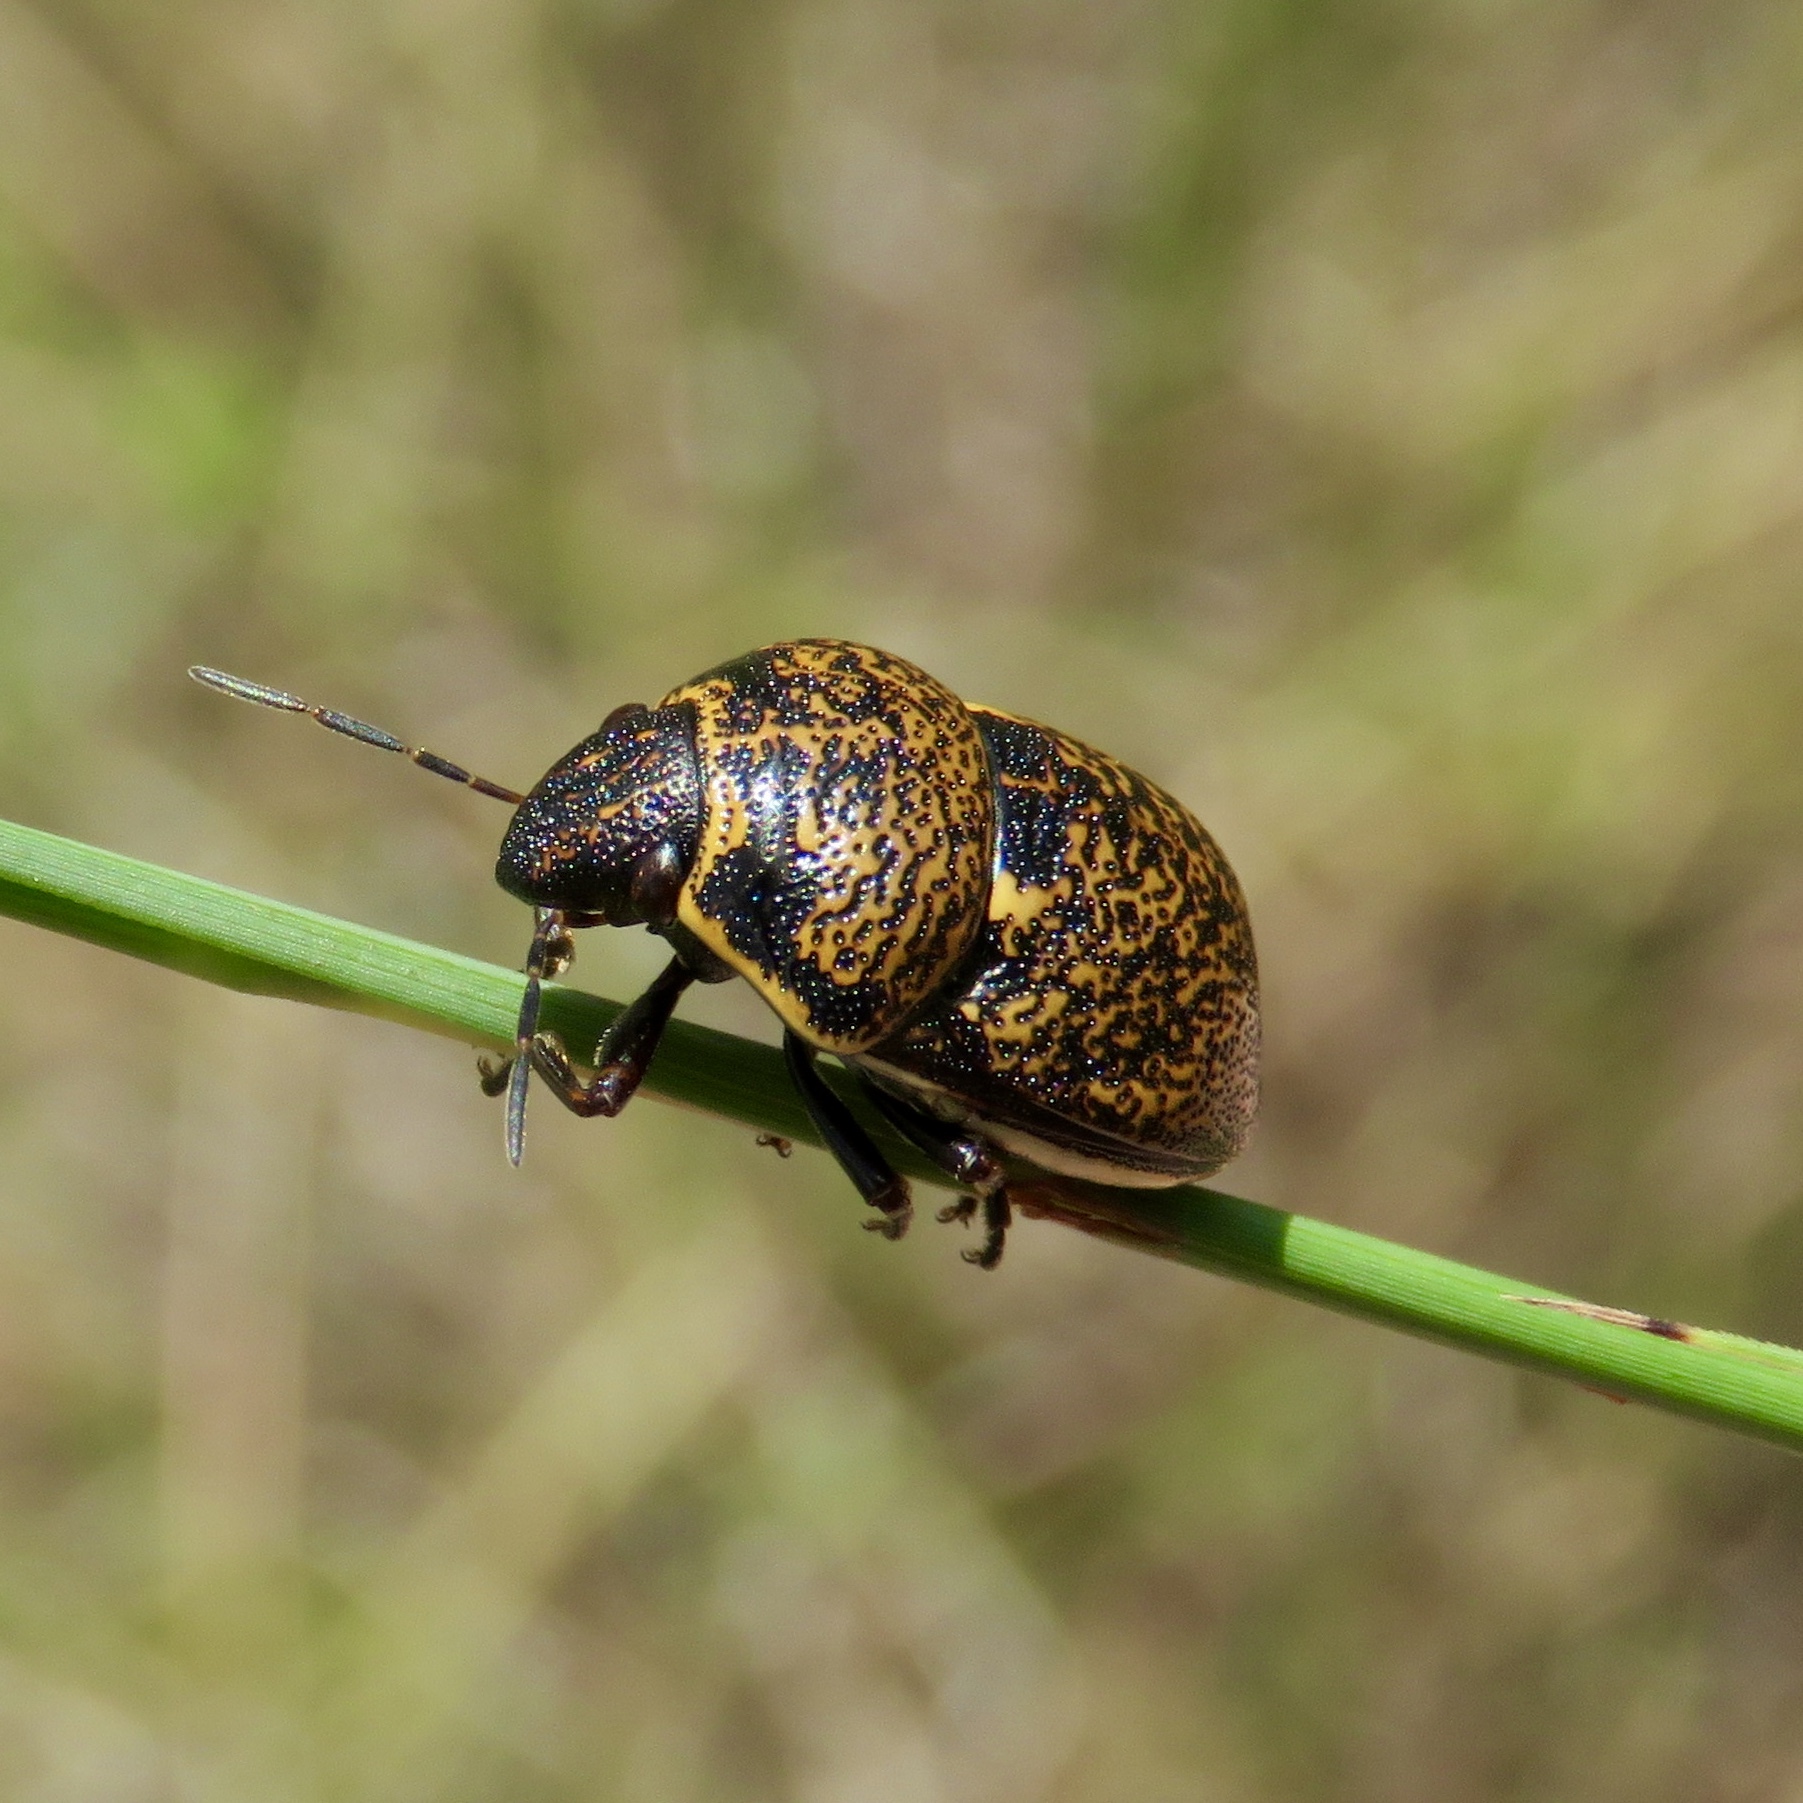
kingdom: Animalia
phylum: Arthropoda
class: Insecta
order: Hemiptera
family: Scutelleridae
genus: Orsilochides
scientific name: Orsilochides guttata
